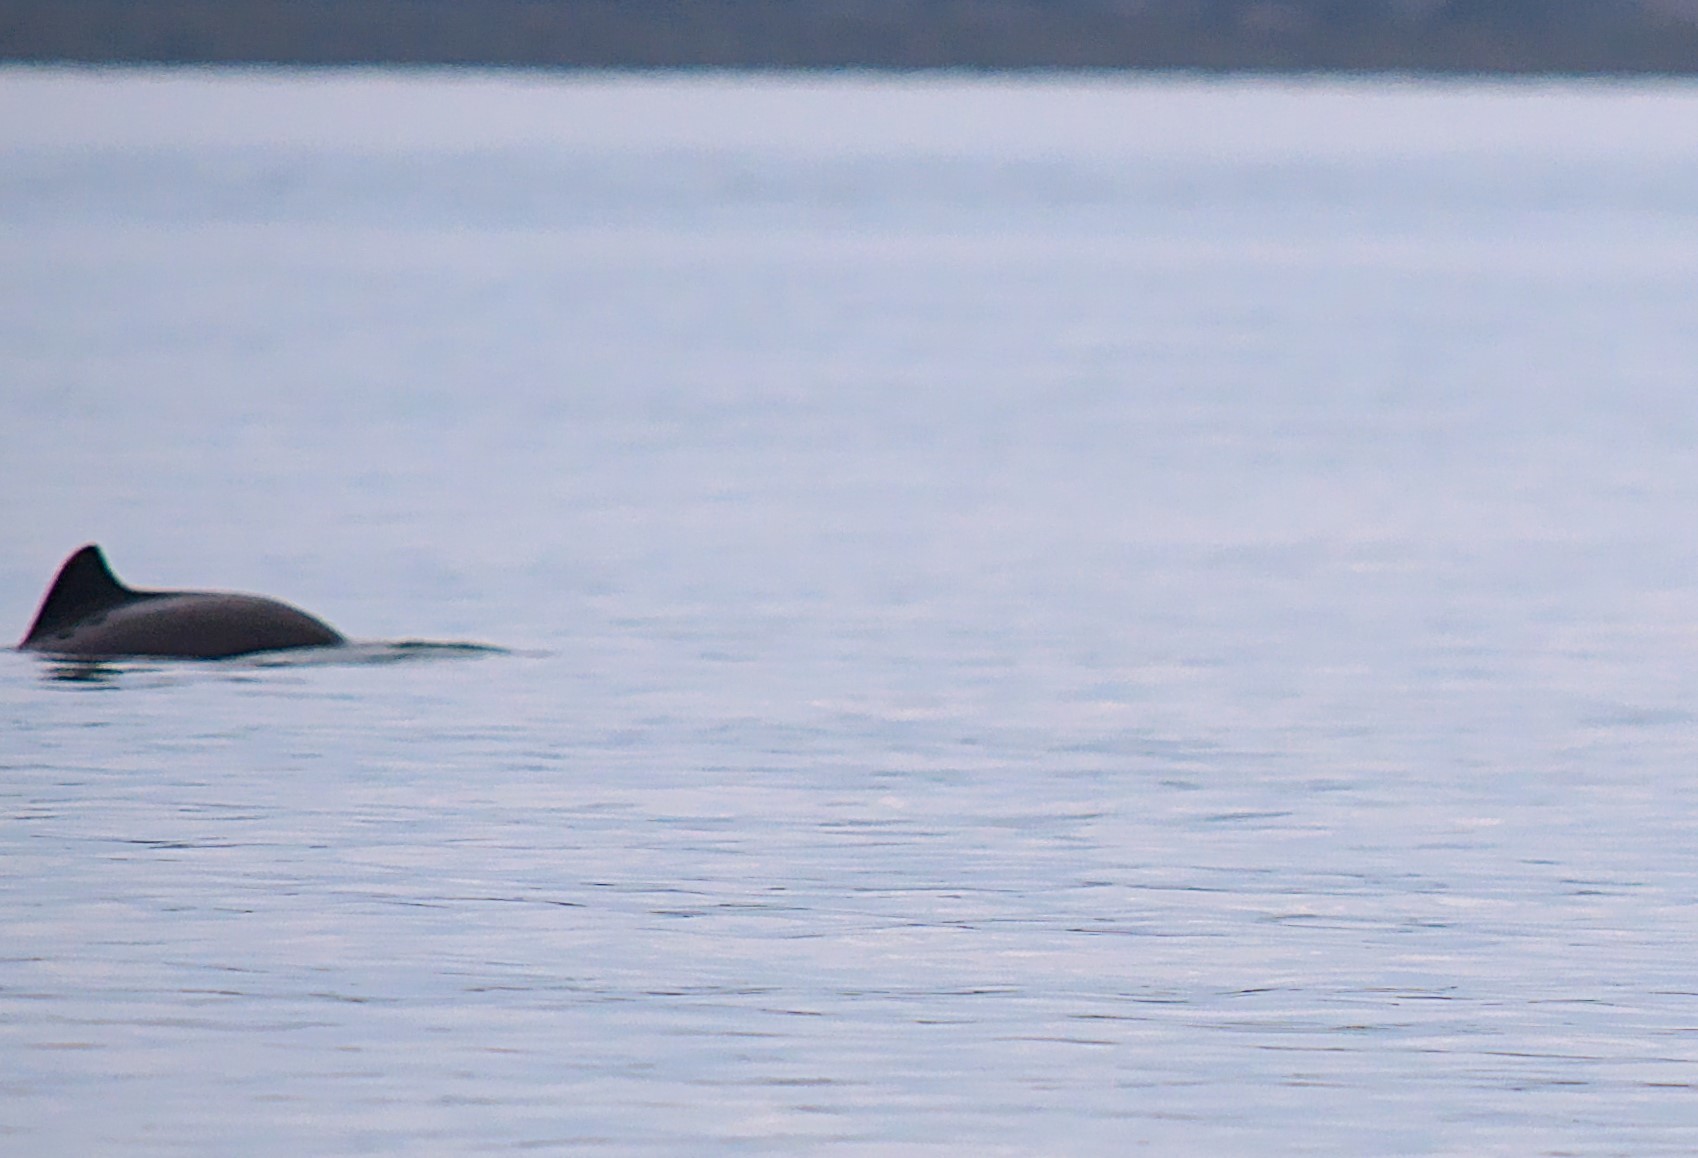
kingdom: Animalia
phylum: Chordata
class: Mammalia
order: Cetacea
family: Phocoenidae
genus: Phocoena
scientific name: Phocoena phocoena
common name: Harbor porpoise
